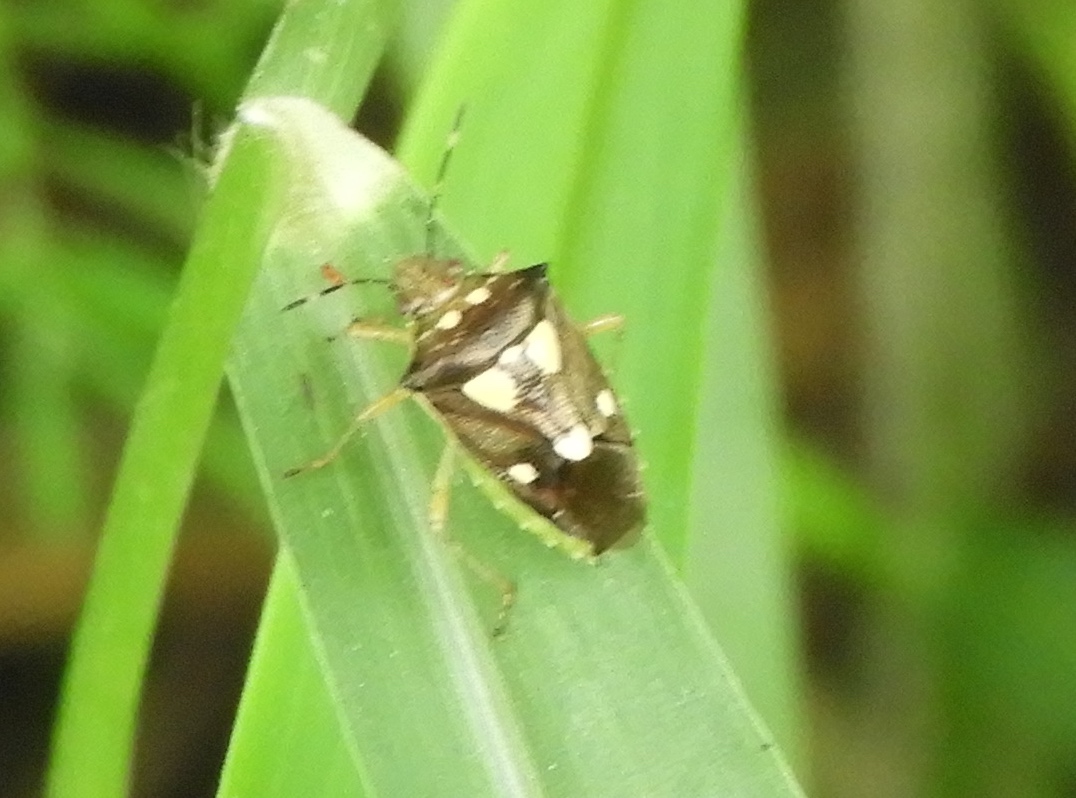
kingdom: Animalia
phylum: Arthropoda
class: Insecta
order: Hemiptera
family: Pentatomidae
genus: Mormidea
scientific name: Mormidea
